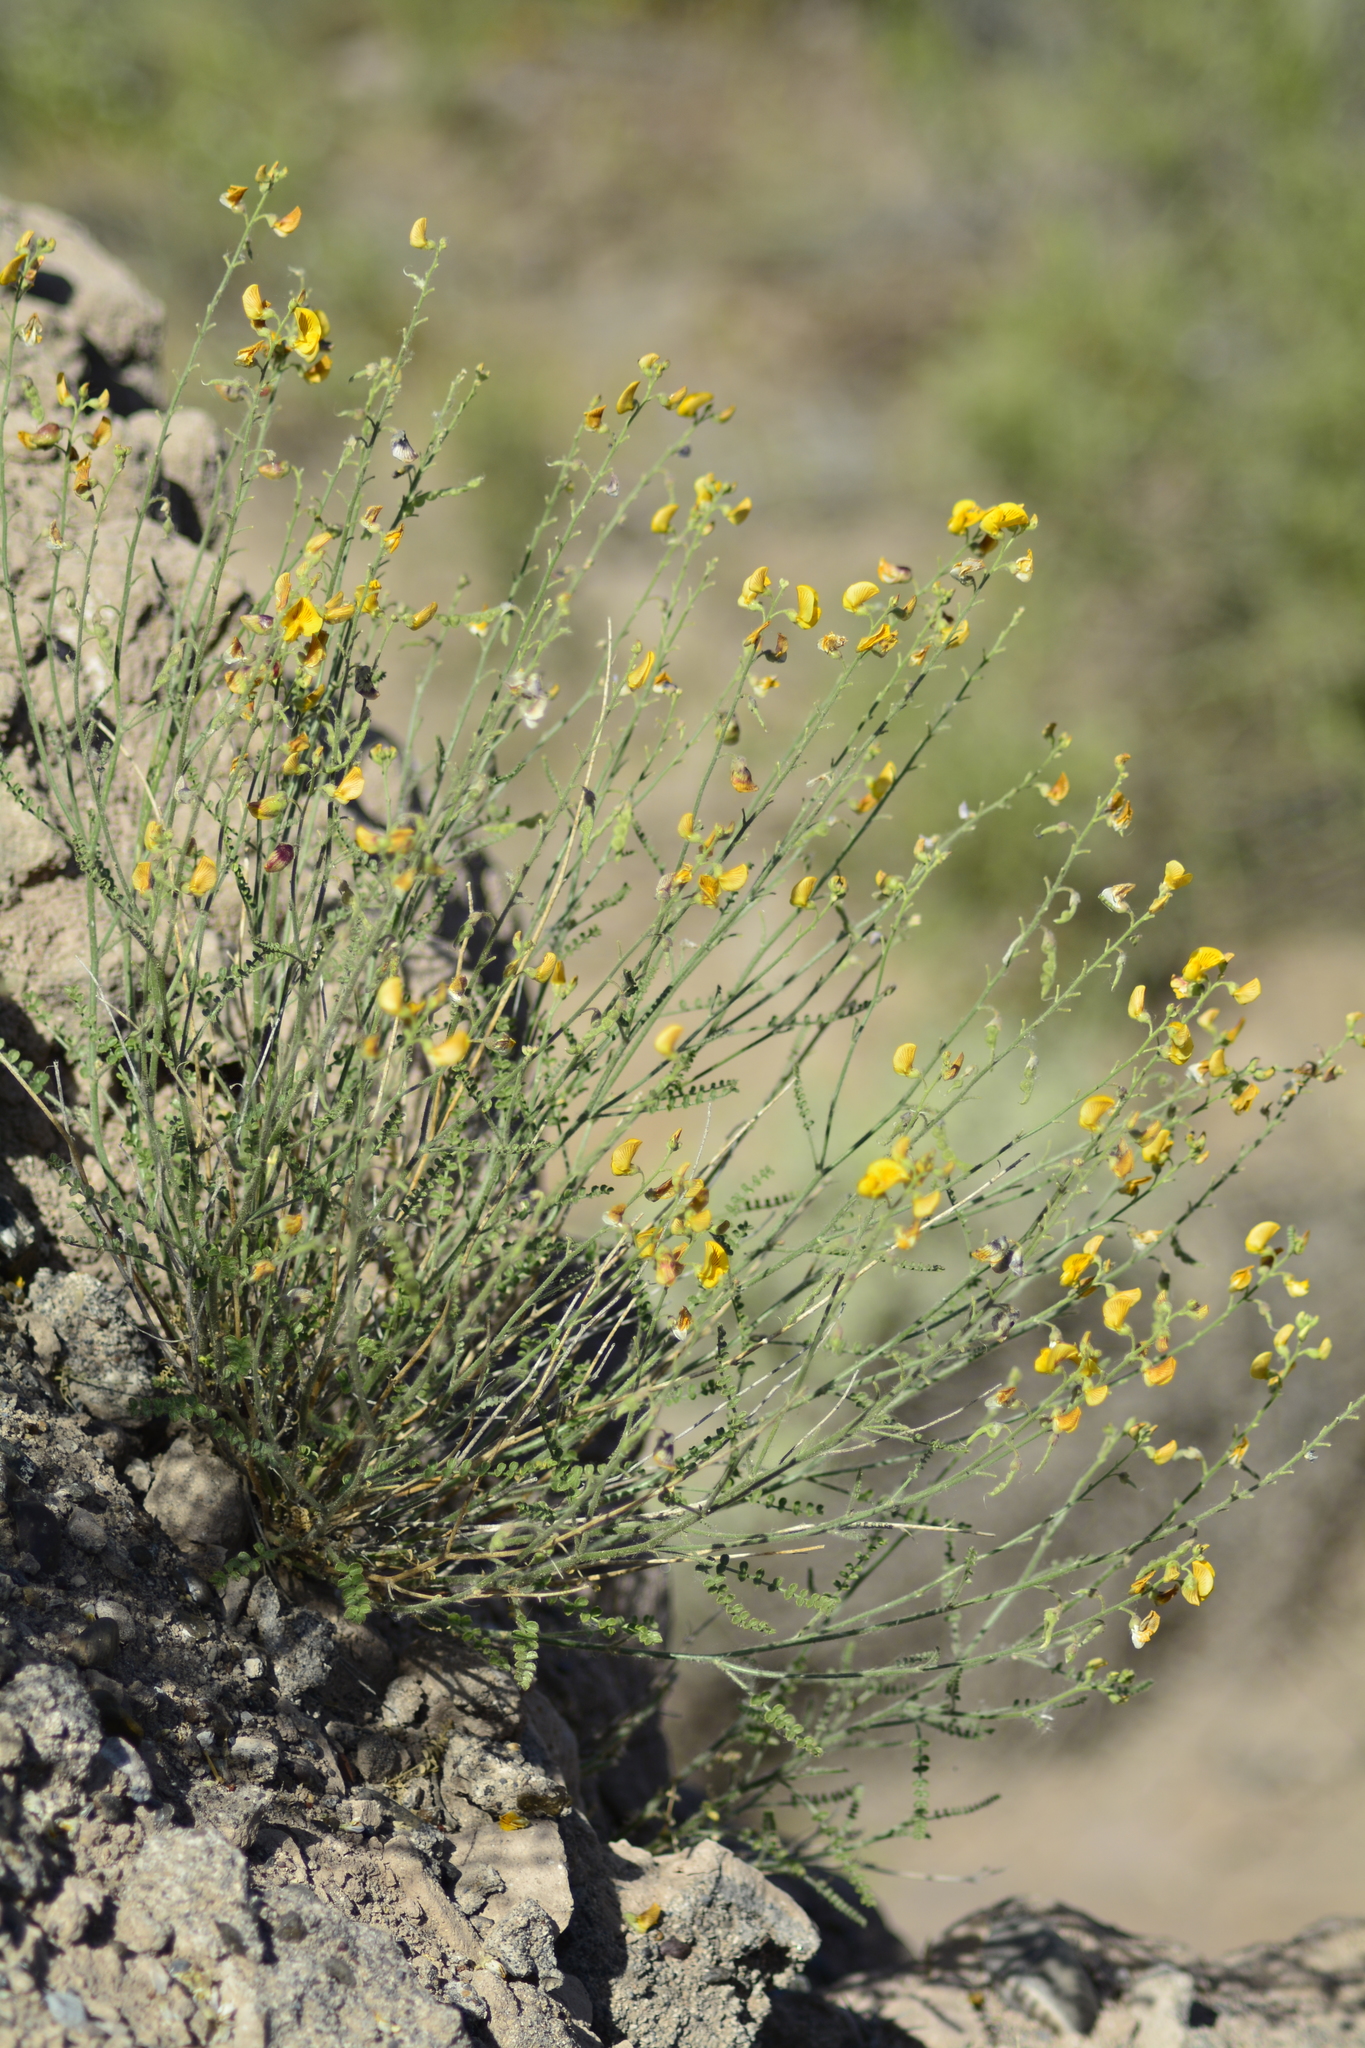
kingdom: Plantae
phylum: Tracheophyta
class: Magnoliopsida
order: Fabales
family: Fabaceae
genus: Adesmia
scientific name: Adesmia retrofracta
